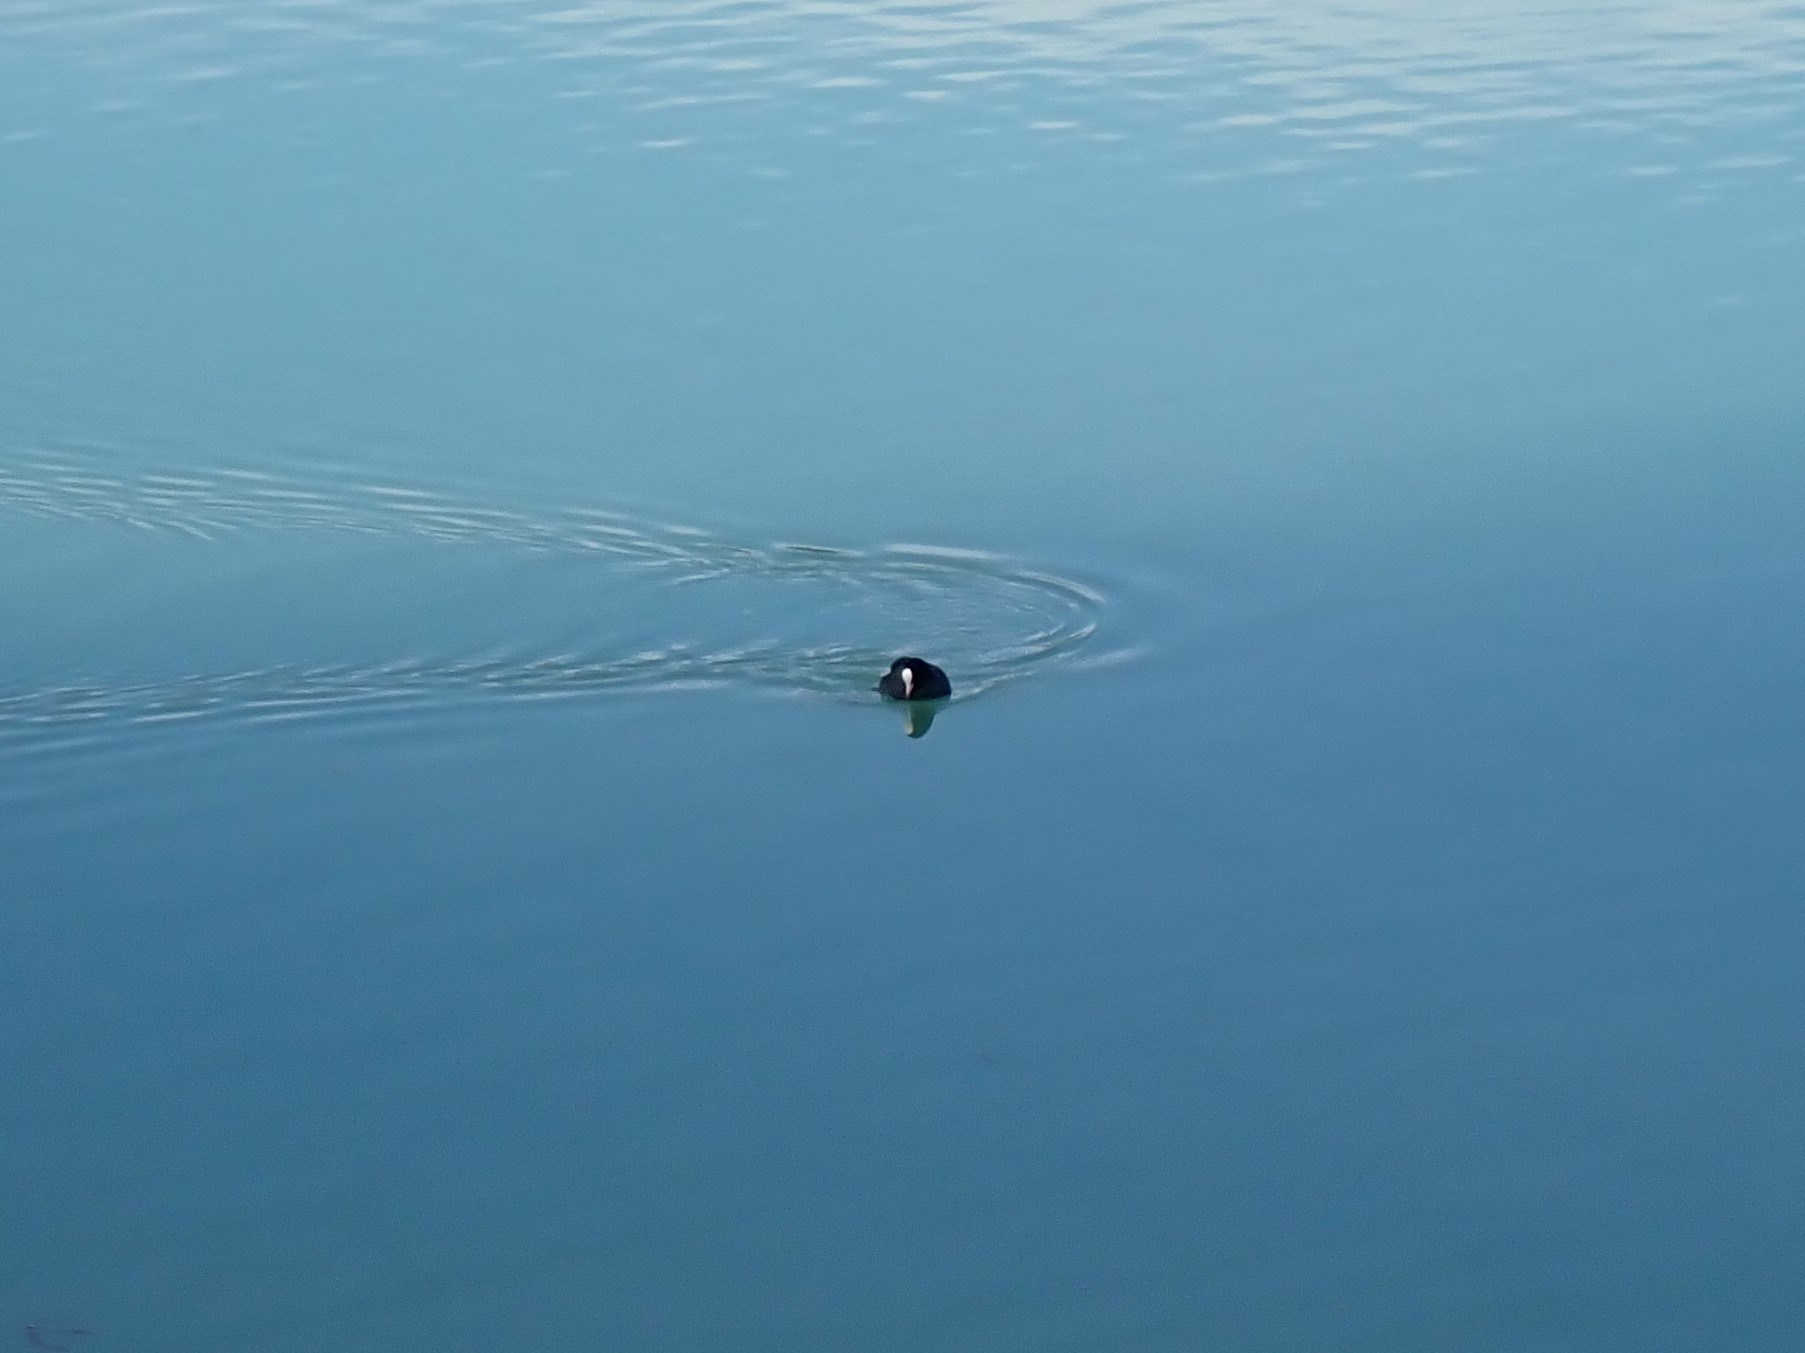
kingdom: Animalia
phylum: Chordata
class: Aves
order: Gruiformes
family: Rallidae
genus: Fulica
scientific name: Fulica atra
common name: Eurasian coot
